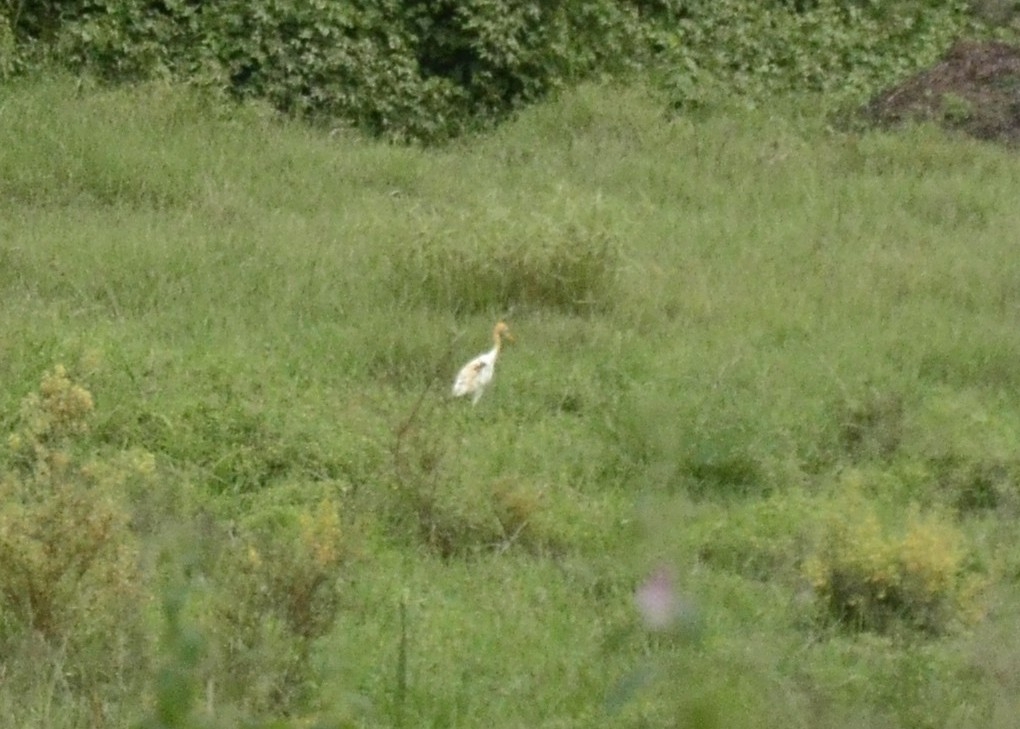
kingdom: Animalia
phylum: Chordata
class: Aves
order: Pelecaniformes
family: Ardeidae
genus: Bubulcus
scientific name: Bubulcus coromandus
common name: Eastern cattle egret
